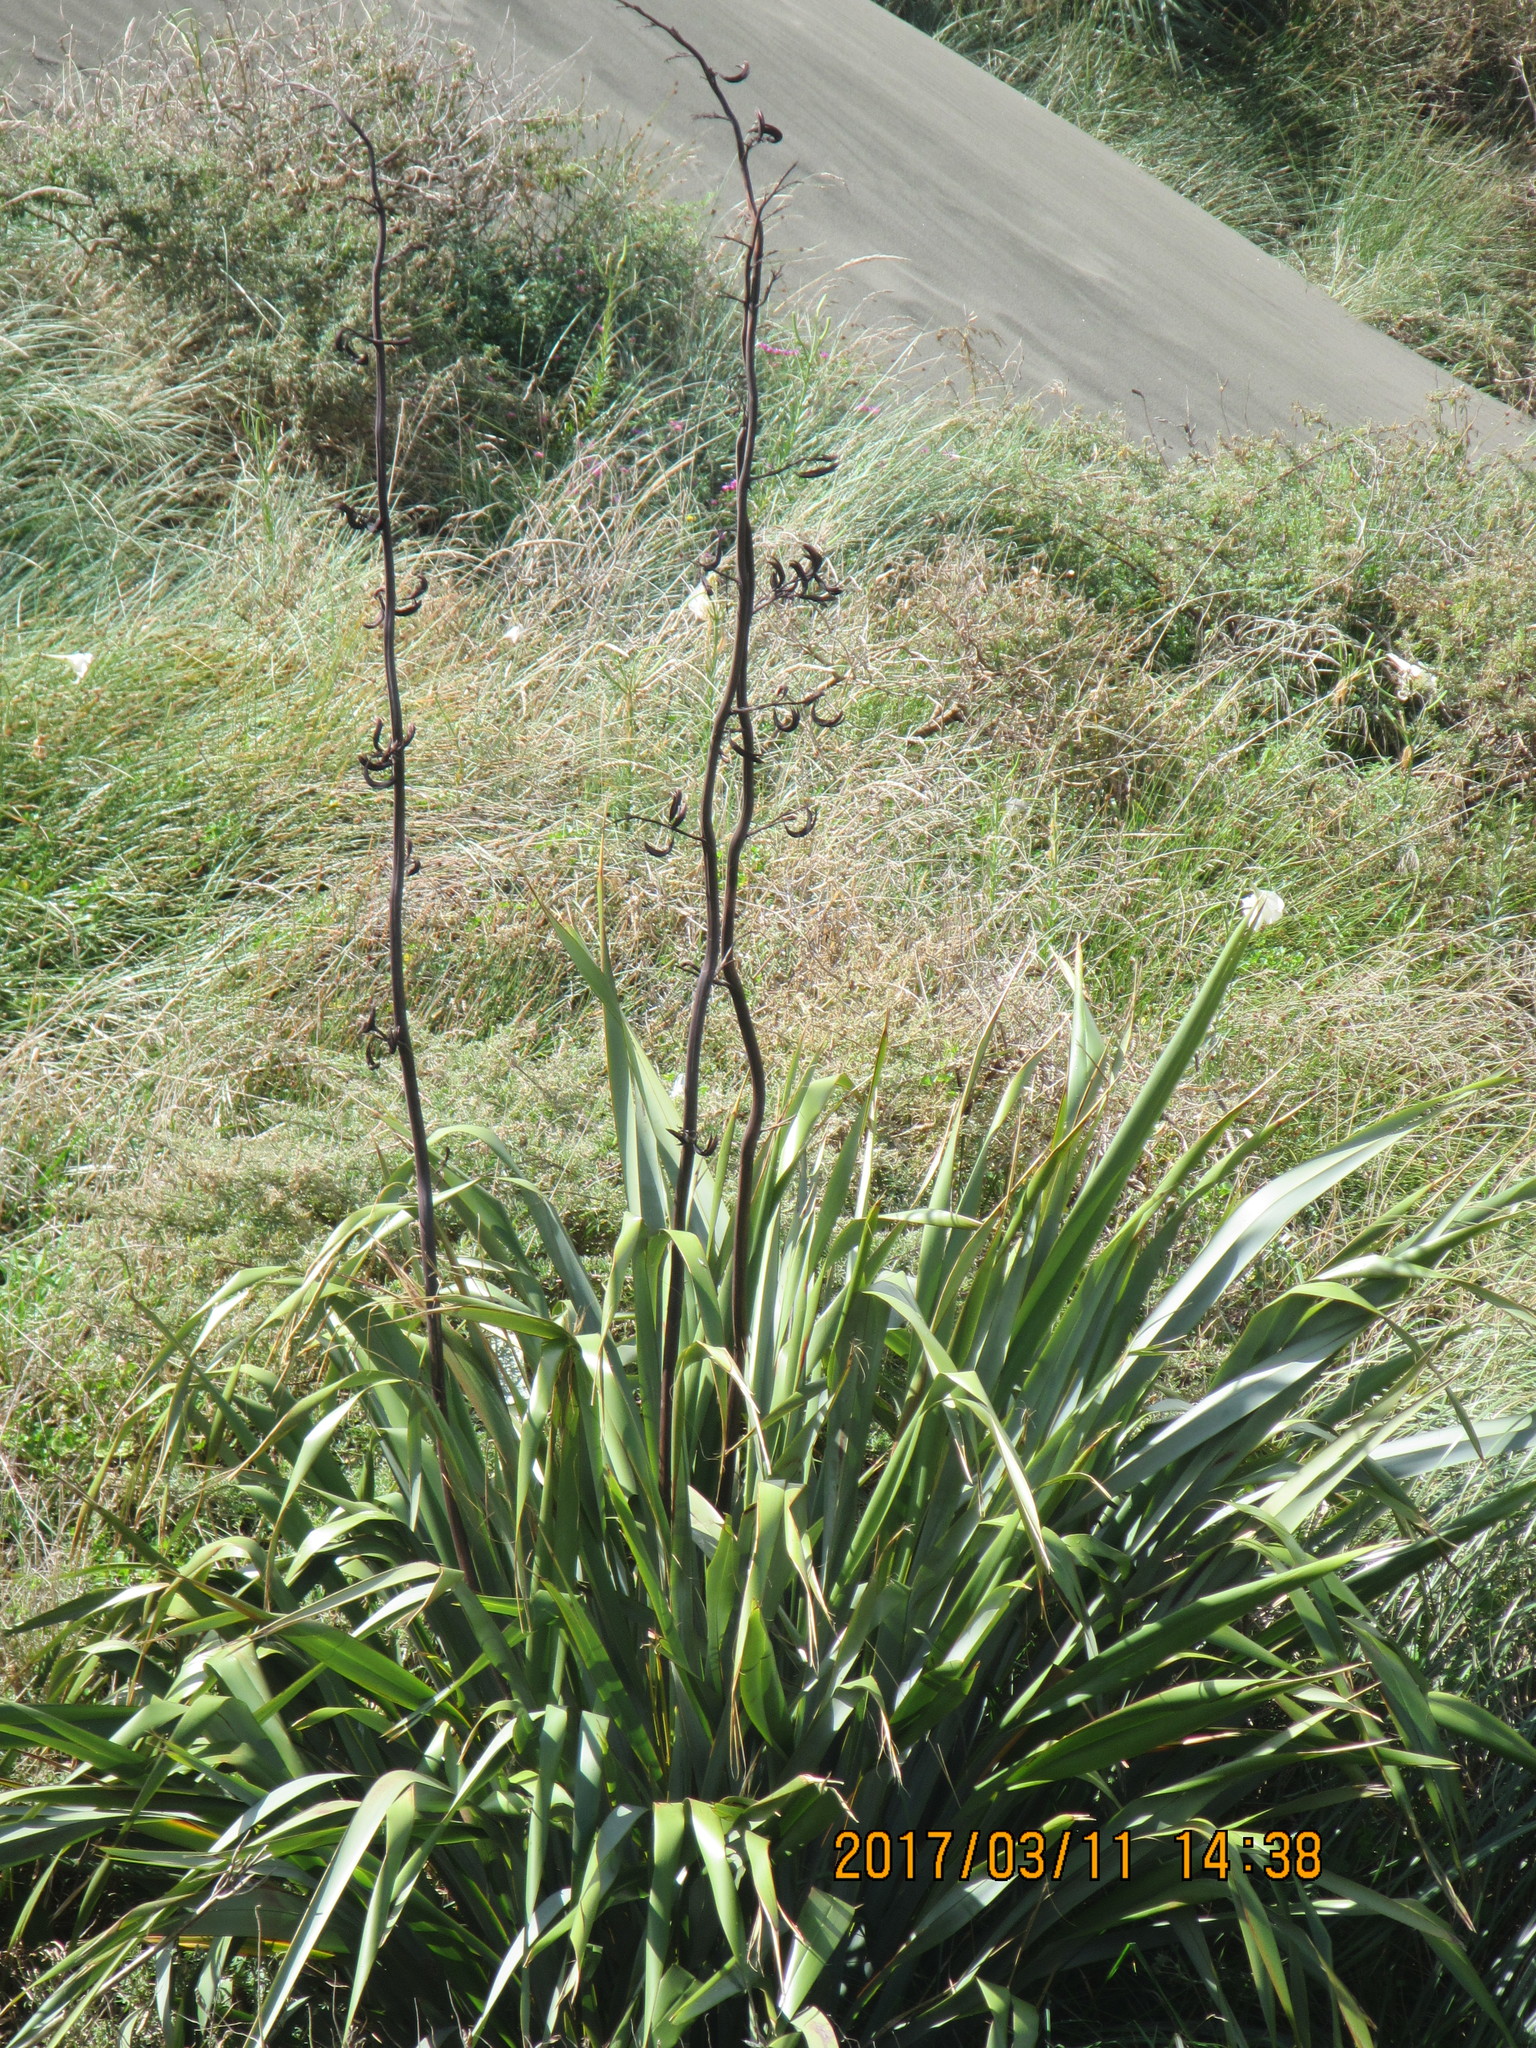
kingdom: Plantae
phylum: Tracheophyta
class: Liliopsida
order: Asparagales
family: Asphodelaceae
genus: Phormium
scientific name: Phormium tenax
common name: New zealand flax
